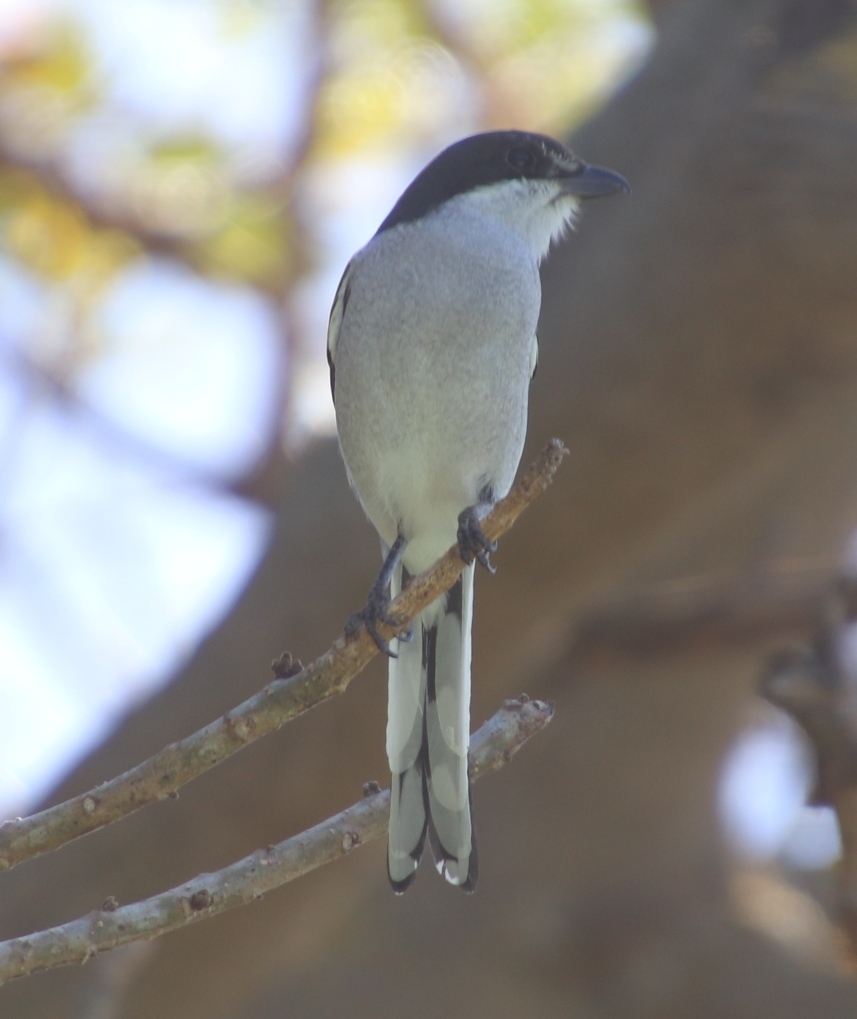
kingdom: Animalia
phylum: Chordata
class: Aves
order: Passeriformes
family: Laniidae
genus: Lanius
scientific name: Lanius collaris
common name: Southern fiscal
